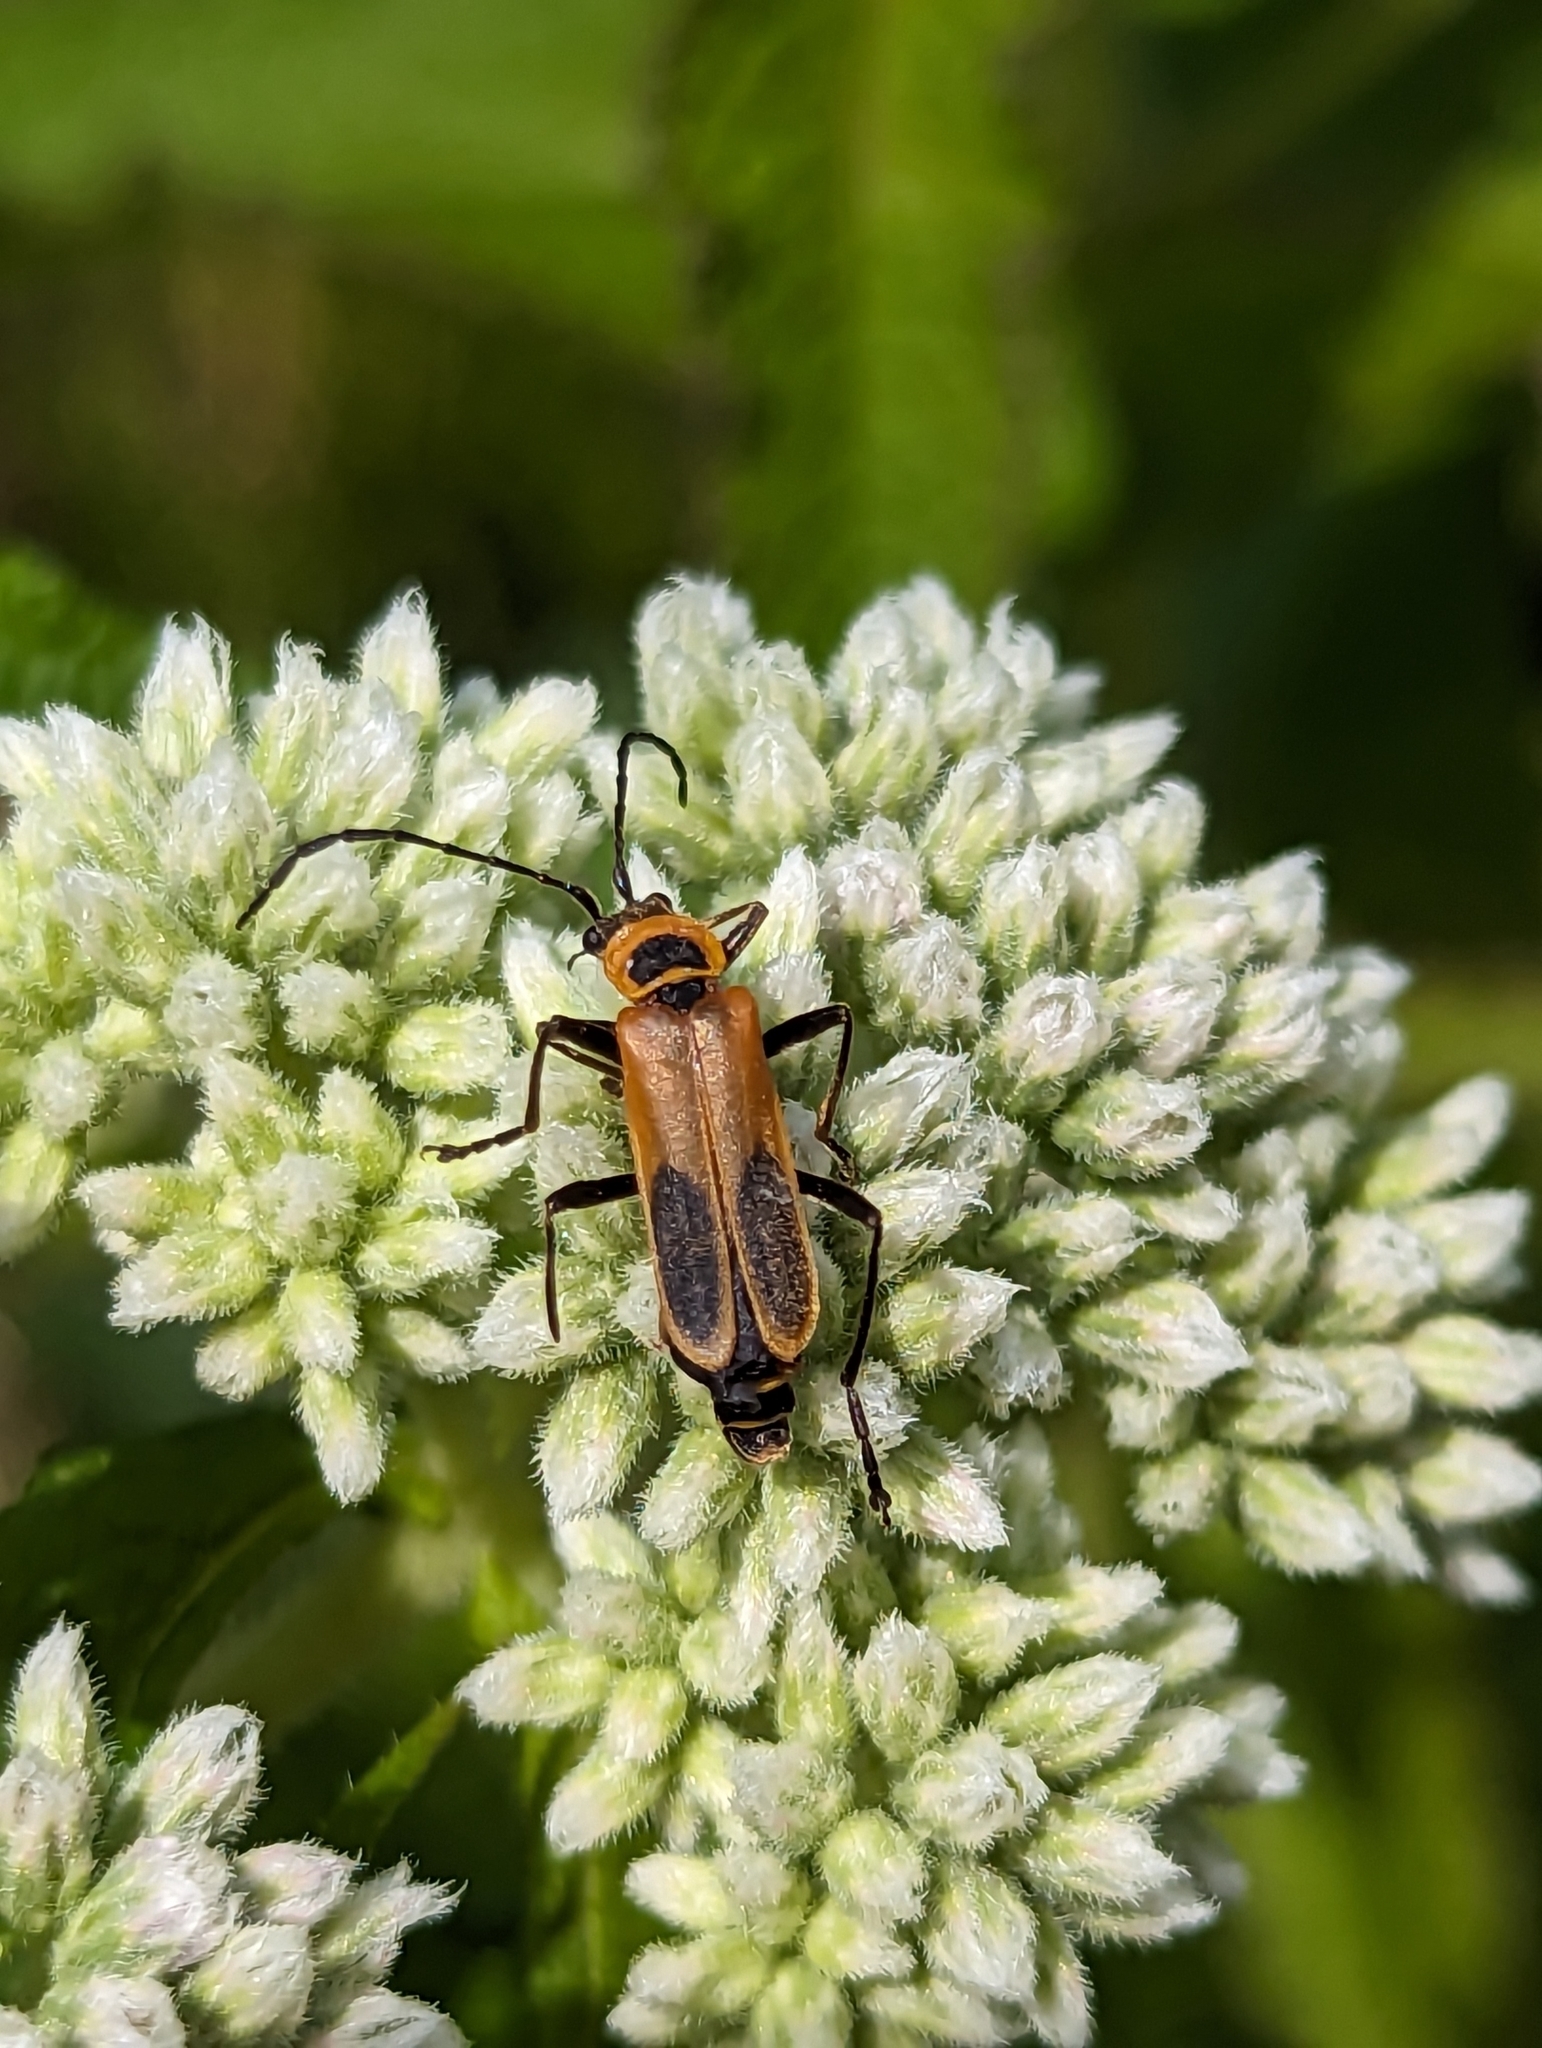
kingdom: Animalia
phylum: Arthropoda
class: Insecta
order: Coleoptera
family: Cantharidae
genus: Chauliognathus
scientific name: Chauliognathus pensylvanicus
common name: Goldenrod soldier beetle
